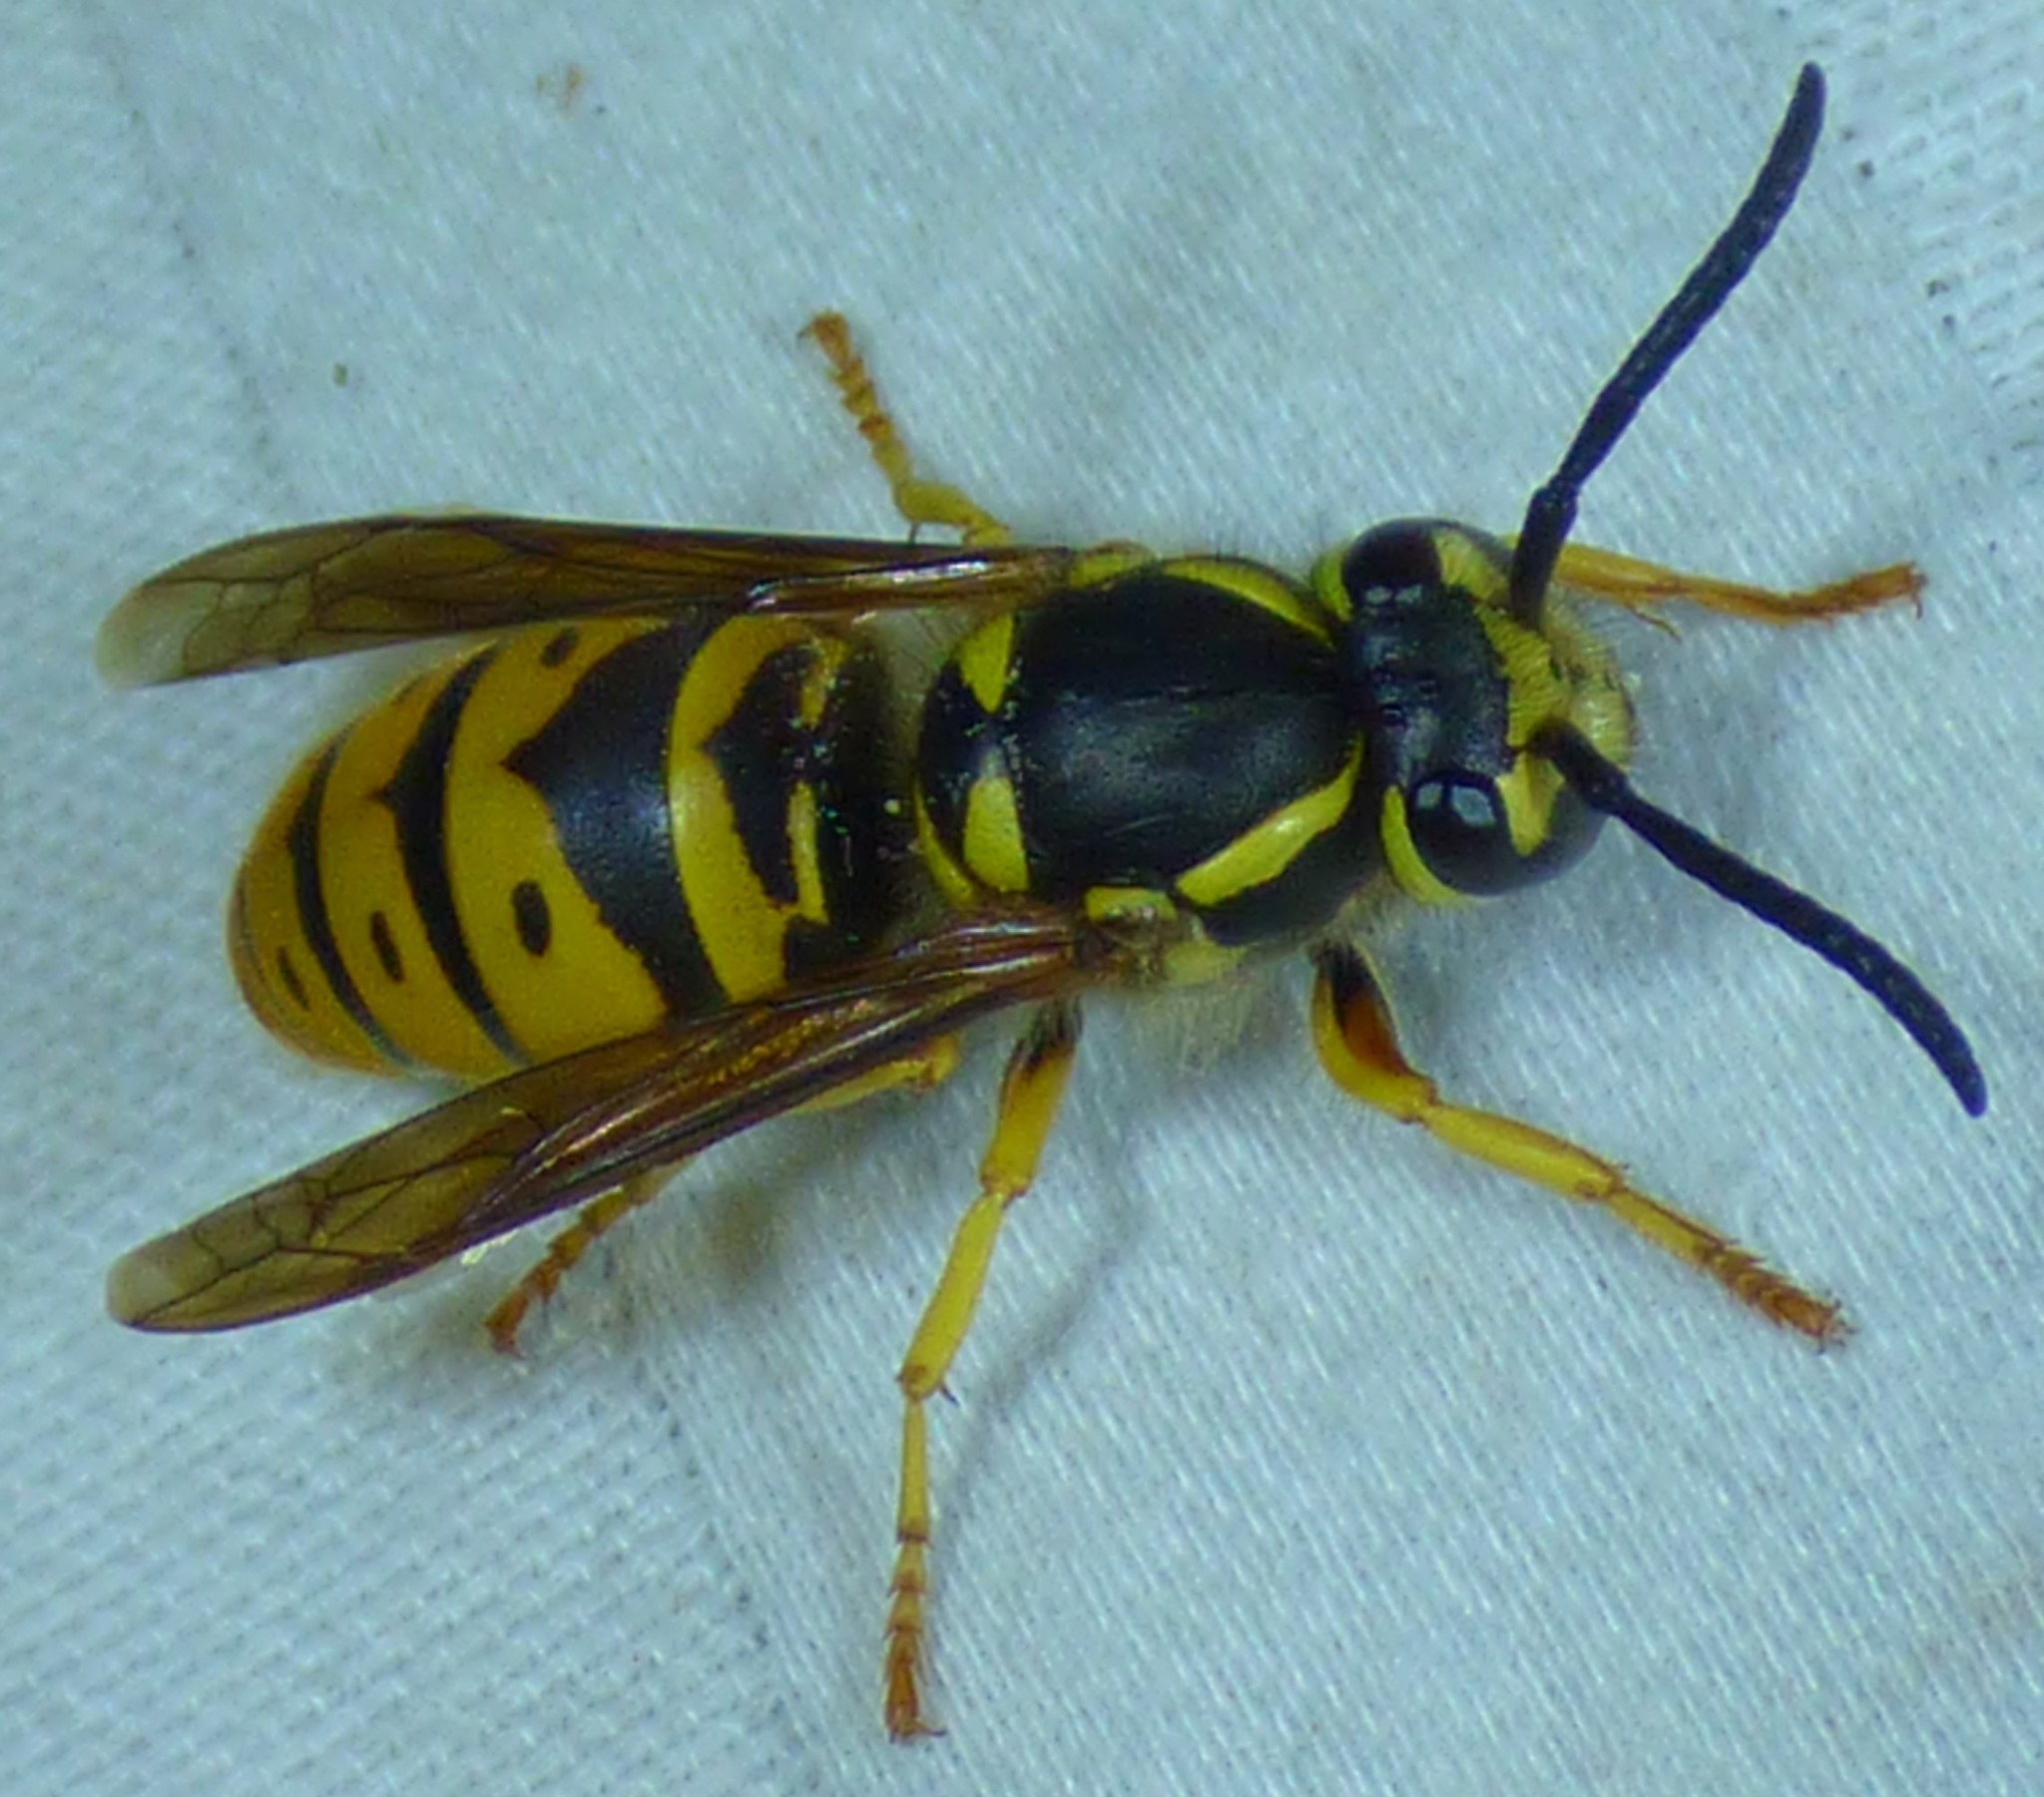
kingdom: Animalia
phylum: Arthropoda
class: Insecta
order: Hymenoptera
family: Vespidae
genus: Vespula
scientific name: Vespula maculifrons
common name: Eastern yellowjacket
